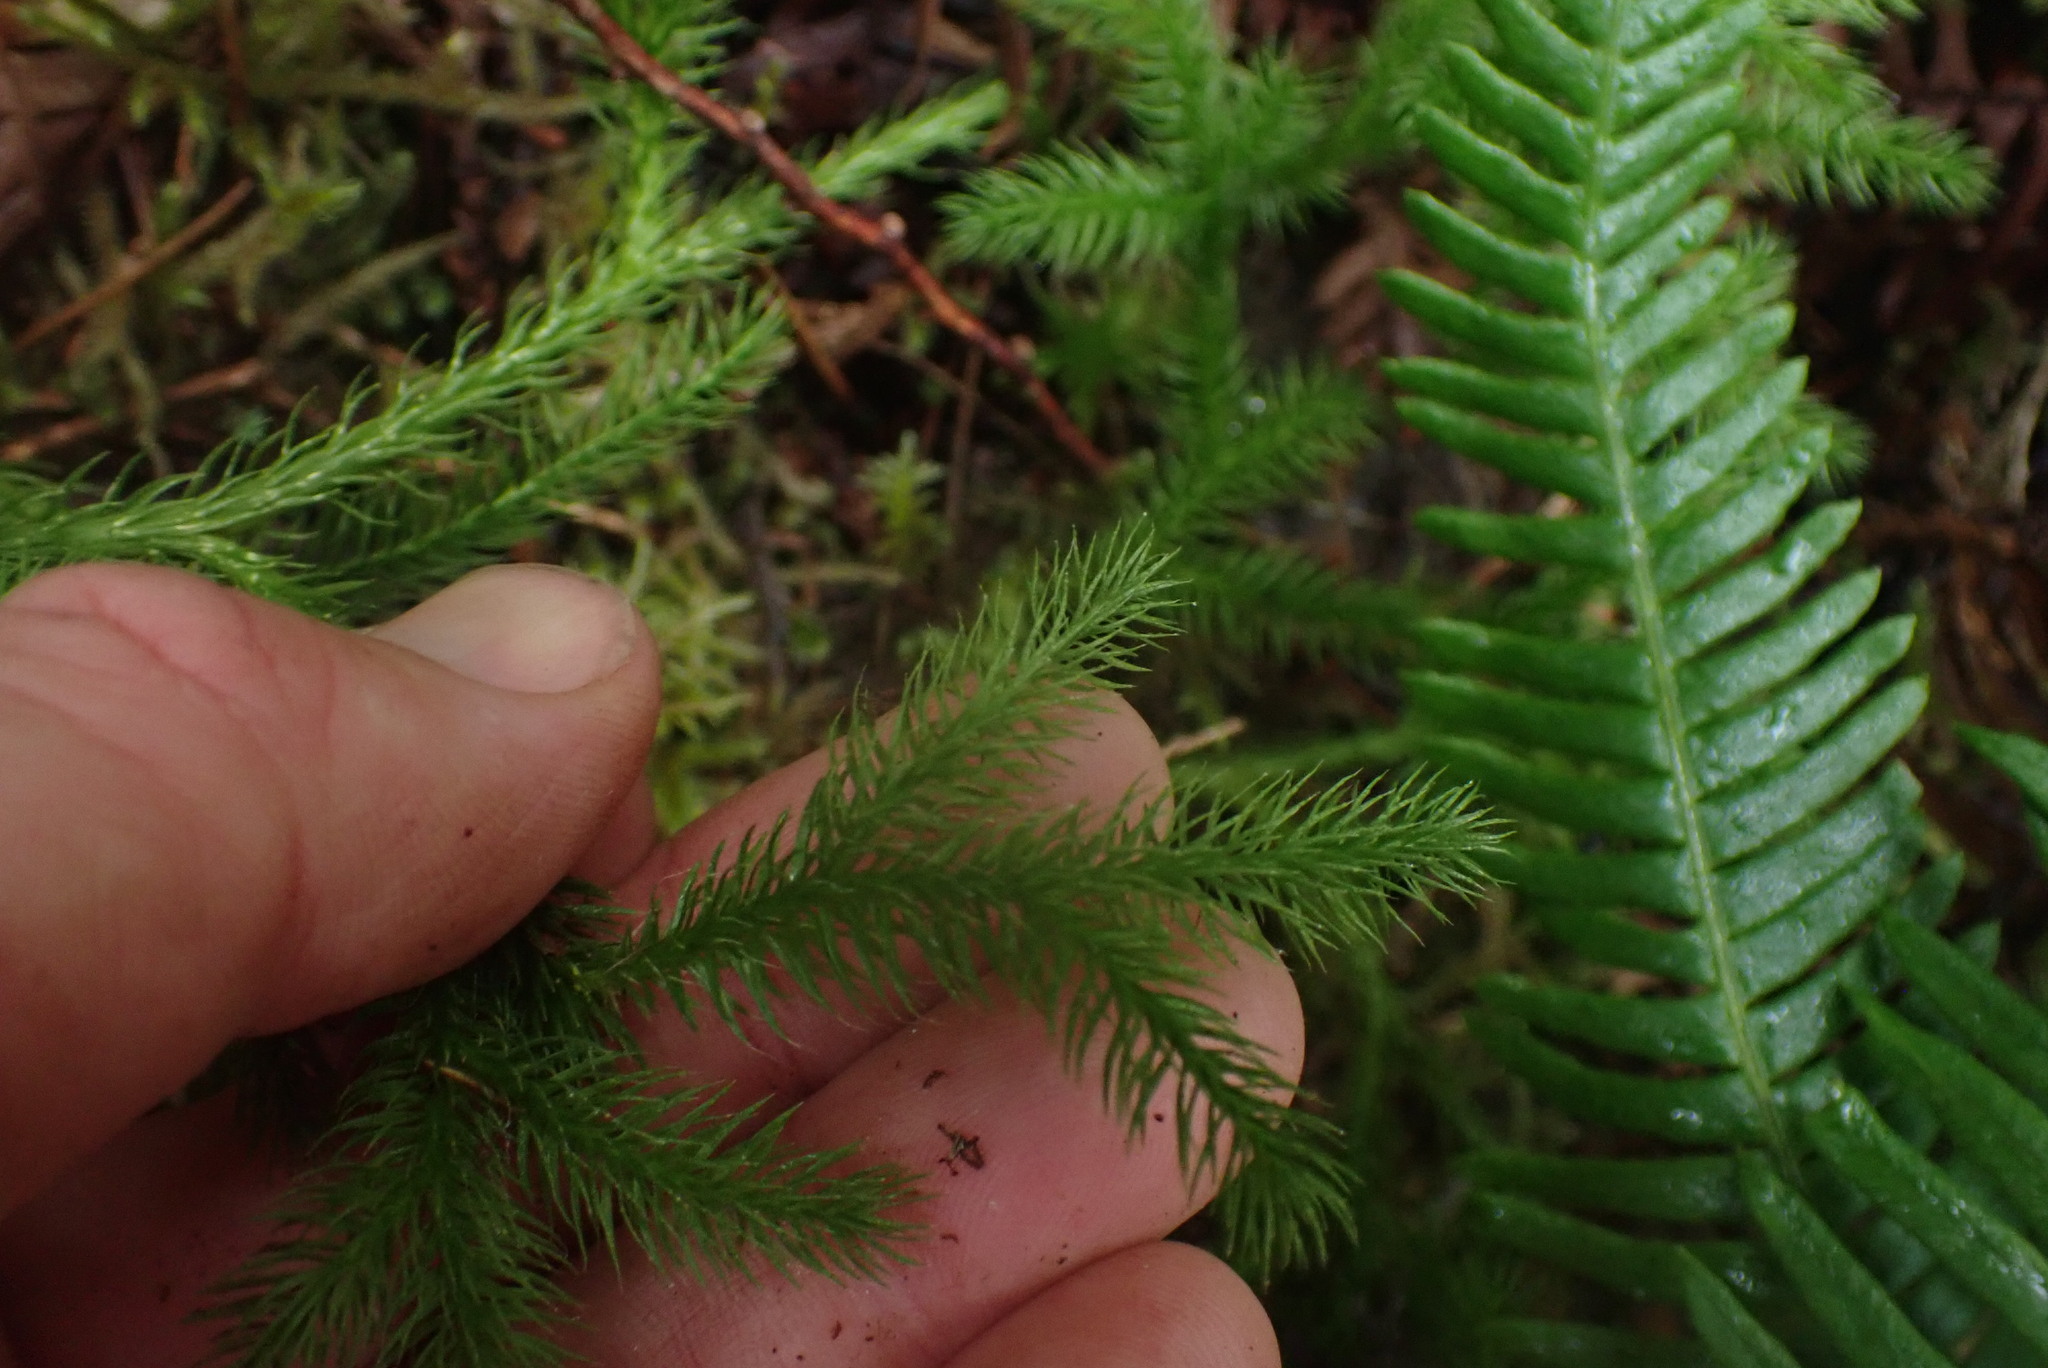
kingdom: Plantae
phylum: Tracheophyta
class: Lycopodiopsida
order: Lycopodiales
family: Lycopodiaceae
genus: Lycopodium
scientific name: Lycopodium clavatum
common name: Stag's-horn clubmoss
